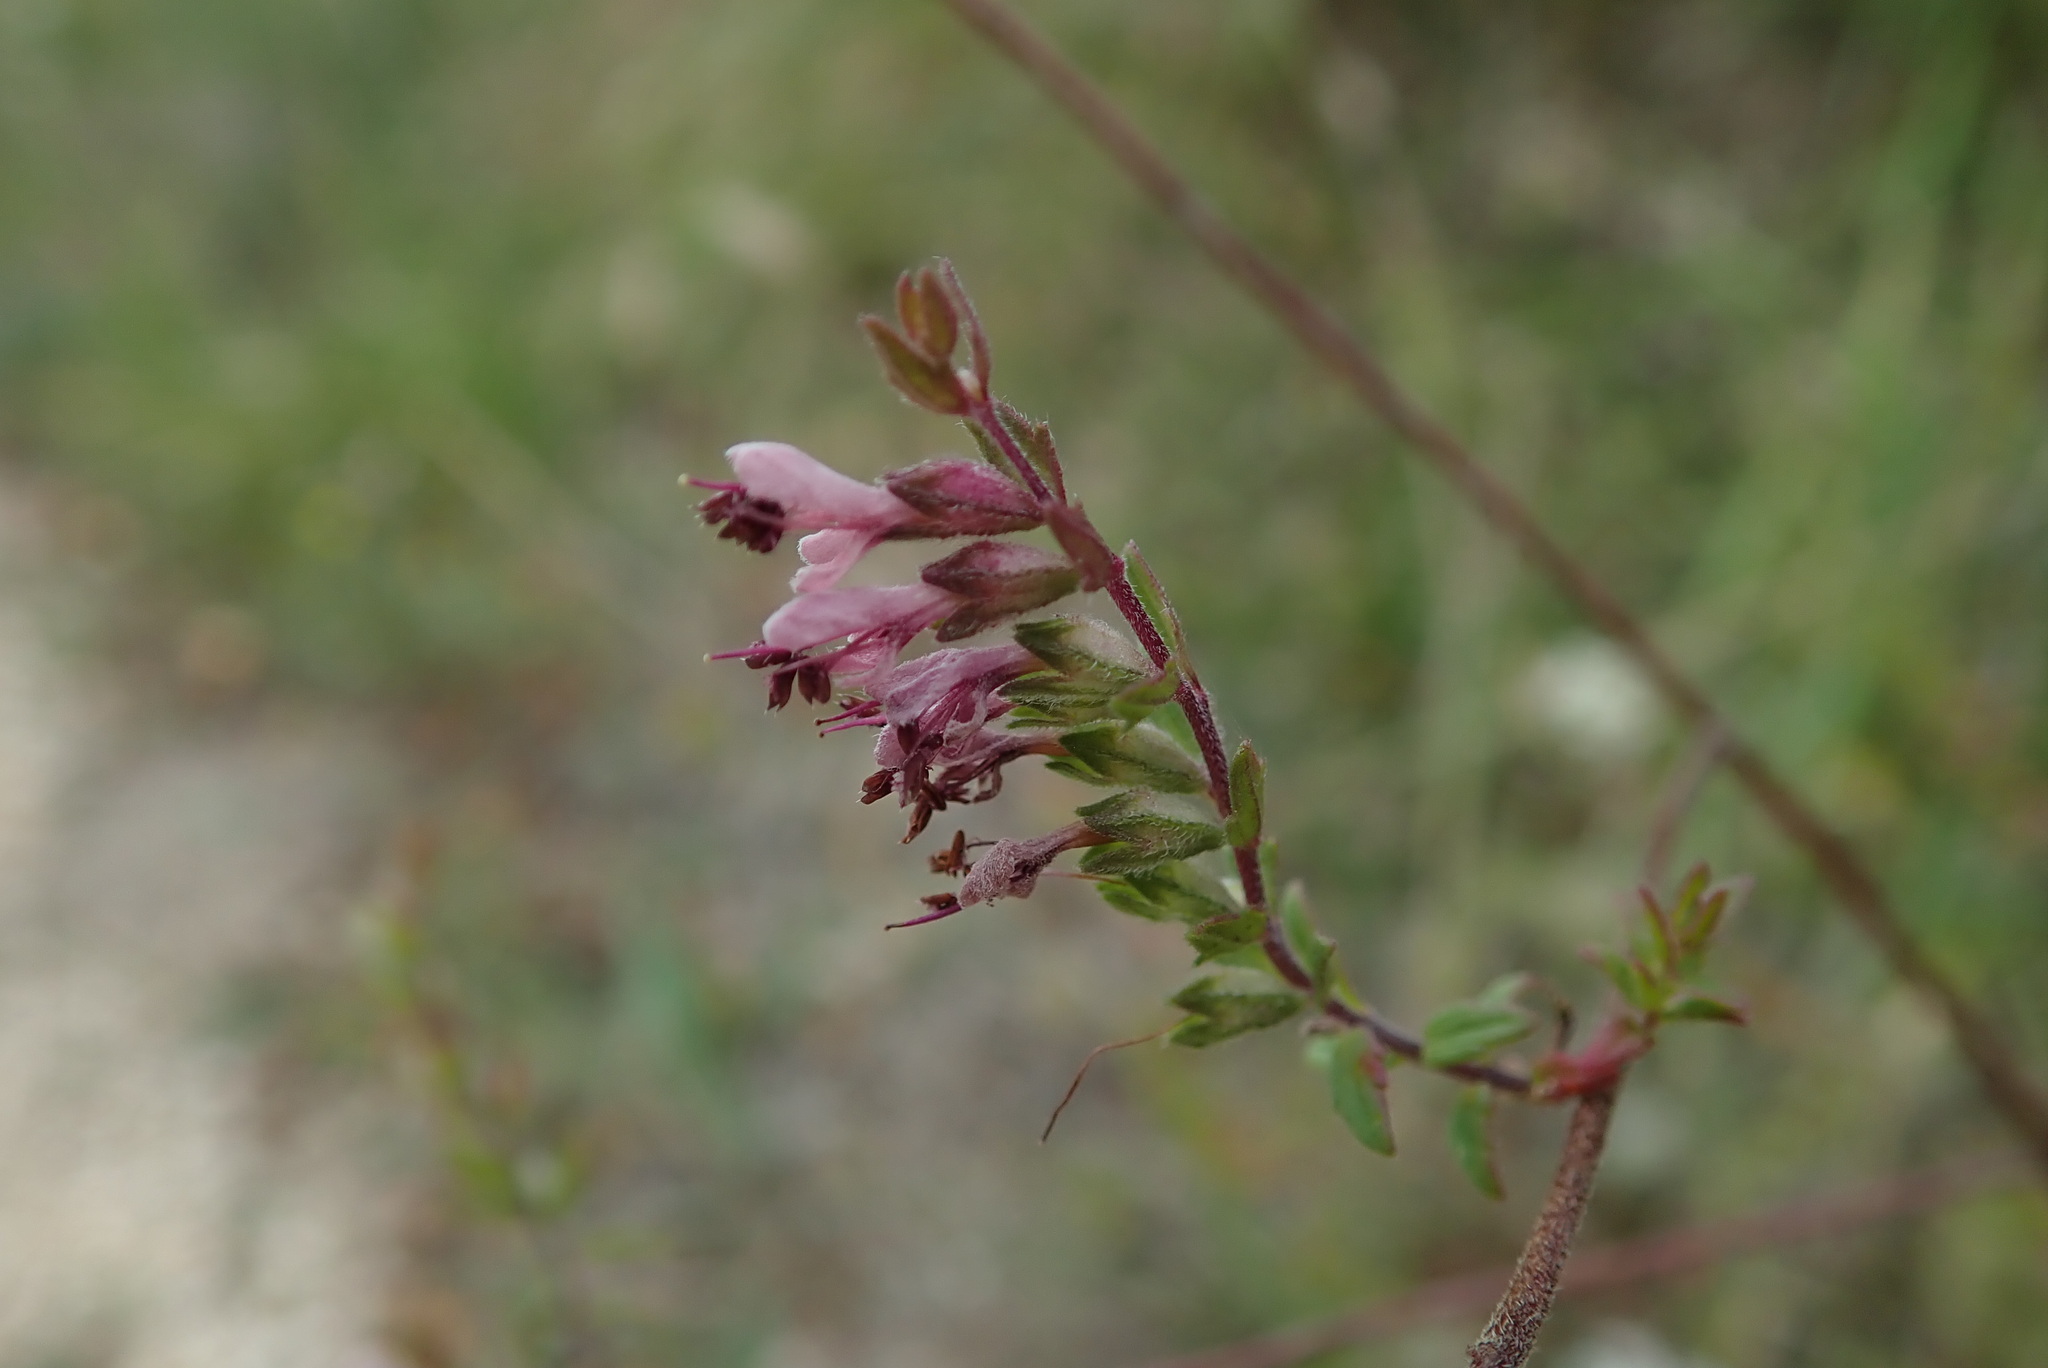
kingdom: Plantae
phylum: Tracheophyta
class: Magnoliopsida
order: Lamiales
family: Orobanchaceae
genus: Odontites
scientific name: Odontites vulgaris
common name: Broomrape
